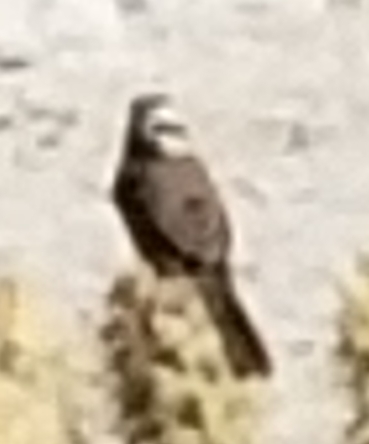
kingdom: Animalia
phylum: Chordata
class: Aves
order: Passeriformes
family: Passerellidae
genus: Amphispiza
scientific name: Amphispiza bilineata
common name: Black-throated sparrow
